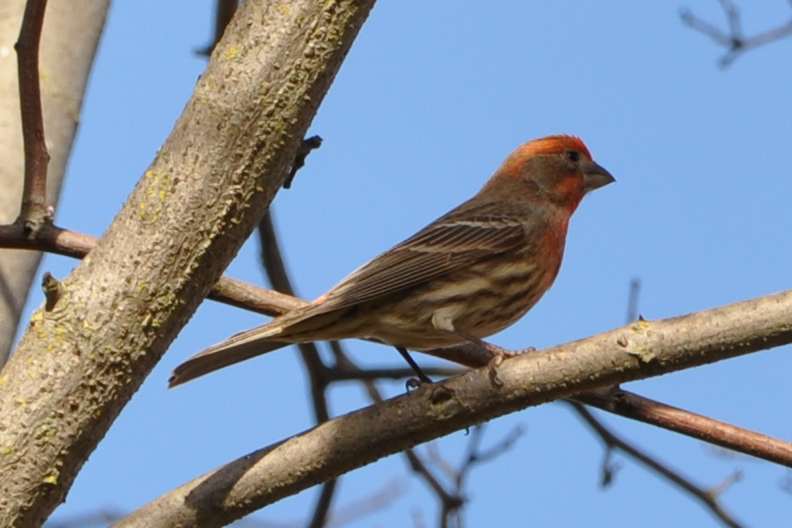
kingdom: Animalia
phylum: Chordata
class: Aves
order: Passeriformes
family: Fringillidae
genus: Haemorhous
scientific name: Haemorhous mexicanus
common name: House finch
